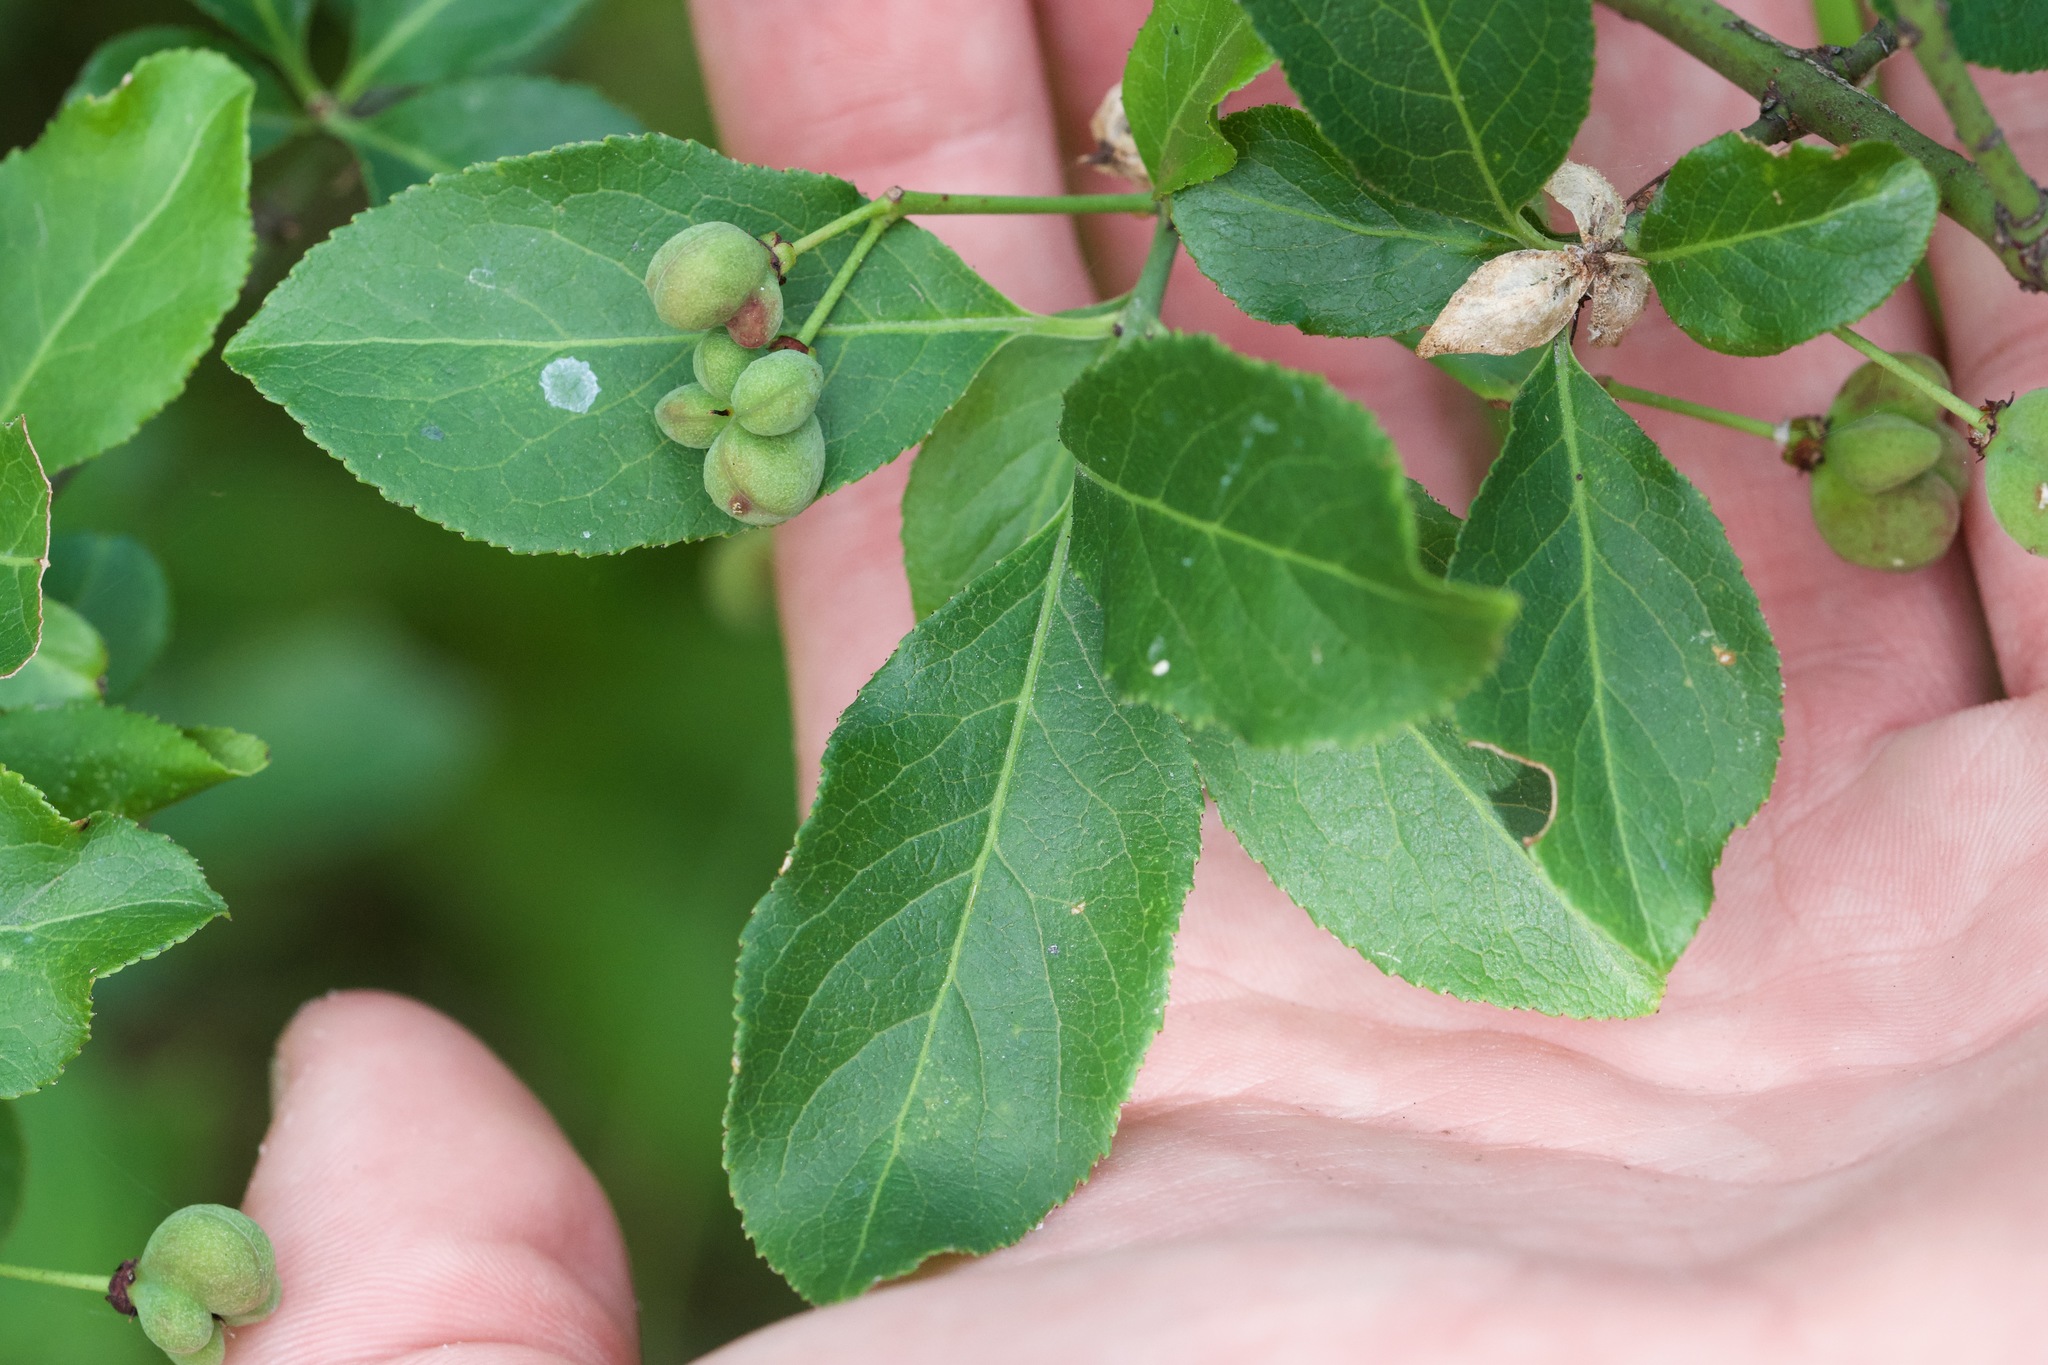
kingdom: Plantae
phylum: Tracheophyta
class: Magnoliopsida
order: Celastrales
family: Celastraceae
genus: Euonymus
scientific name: Euonymus europaeus
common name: Spindle
